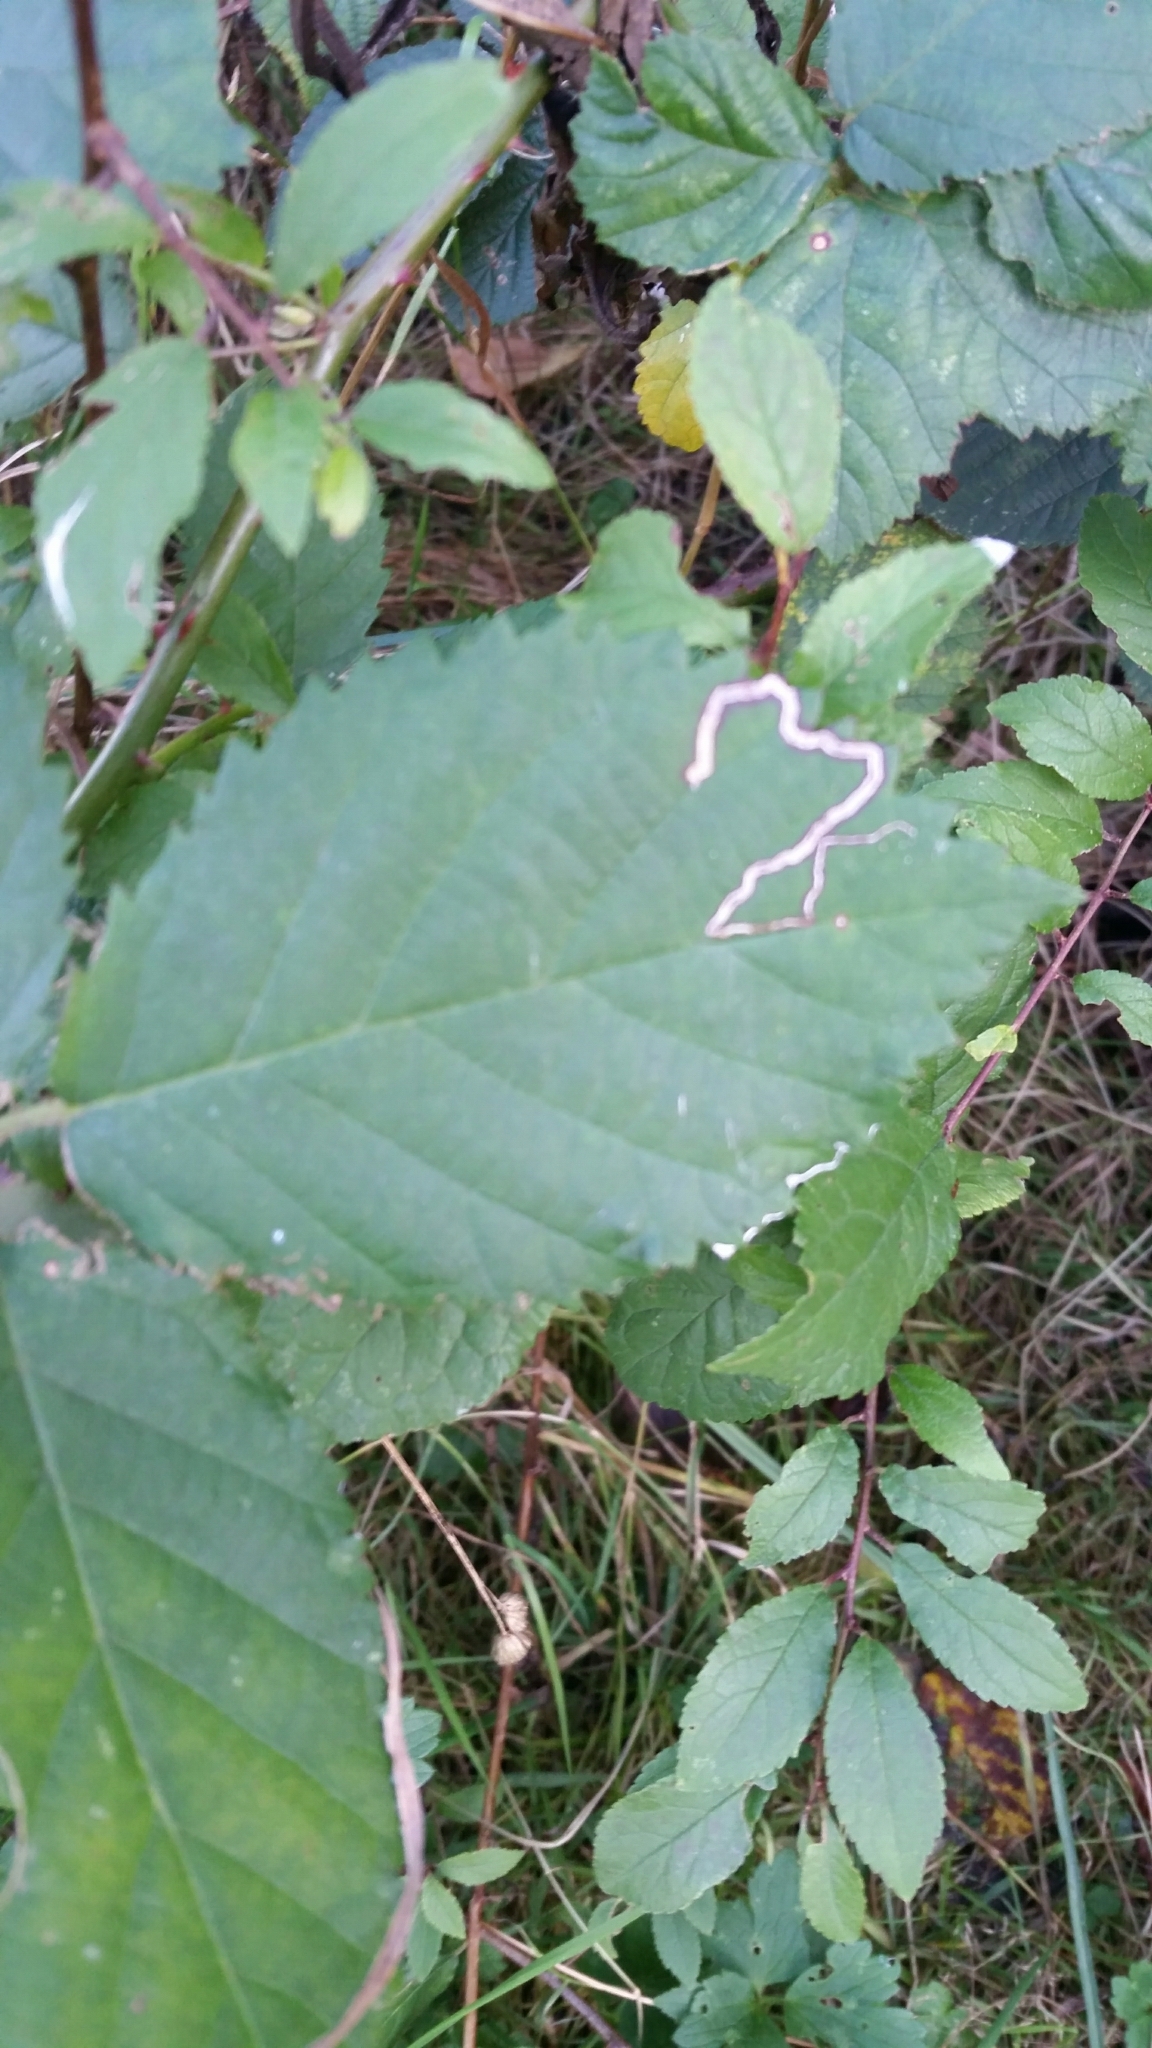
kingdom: Animalia
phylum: Arthropoda
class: Insecta
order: Lepidoptera
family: Nepticulidae
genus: Stigmella
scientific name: Stigmella aurella
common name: Golden pigmy
